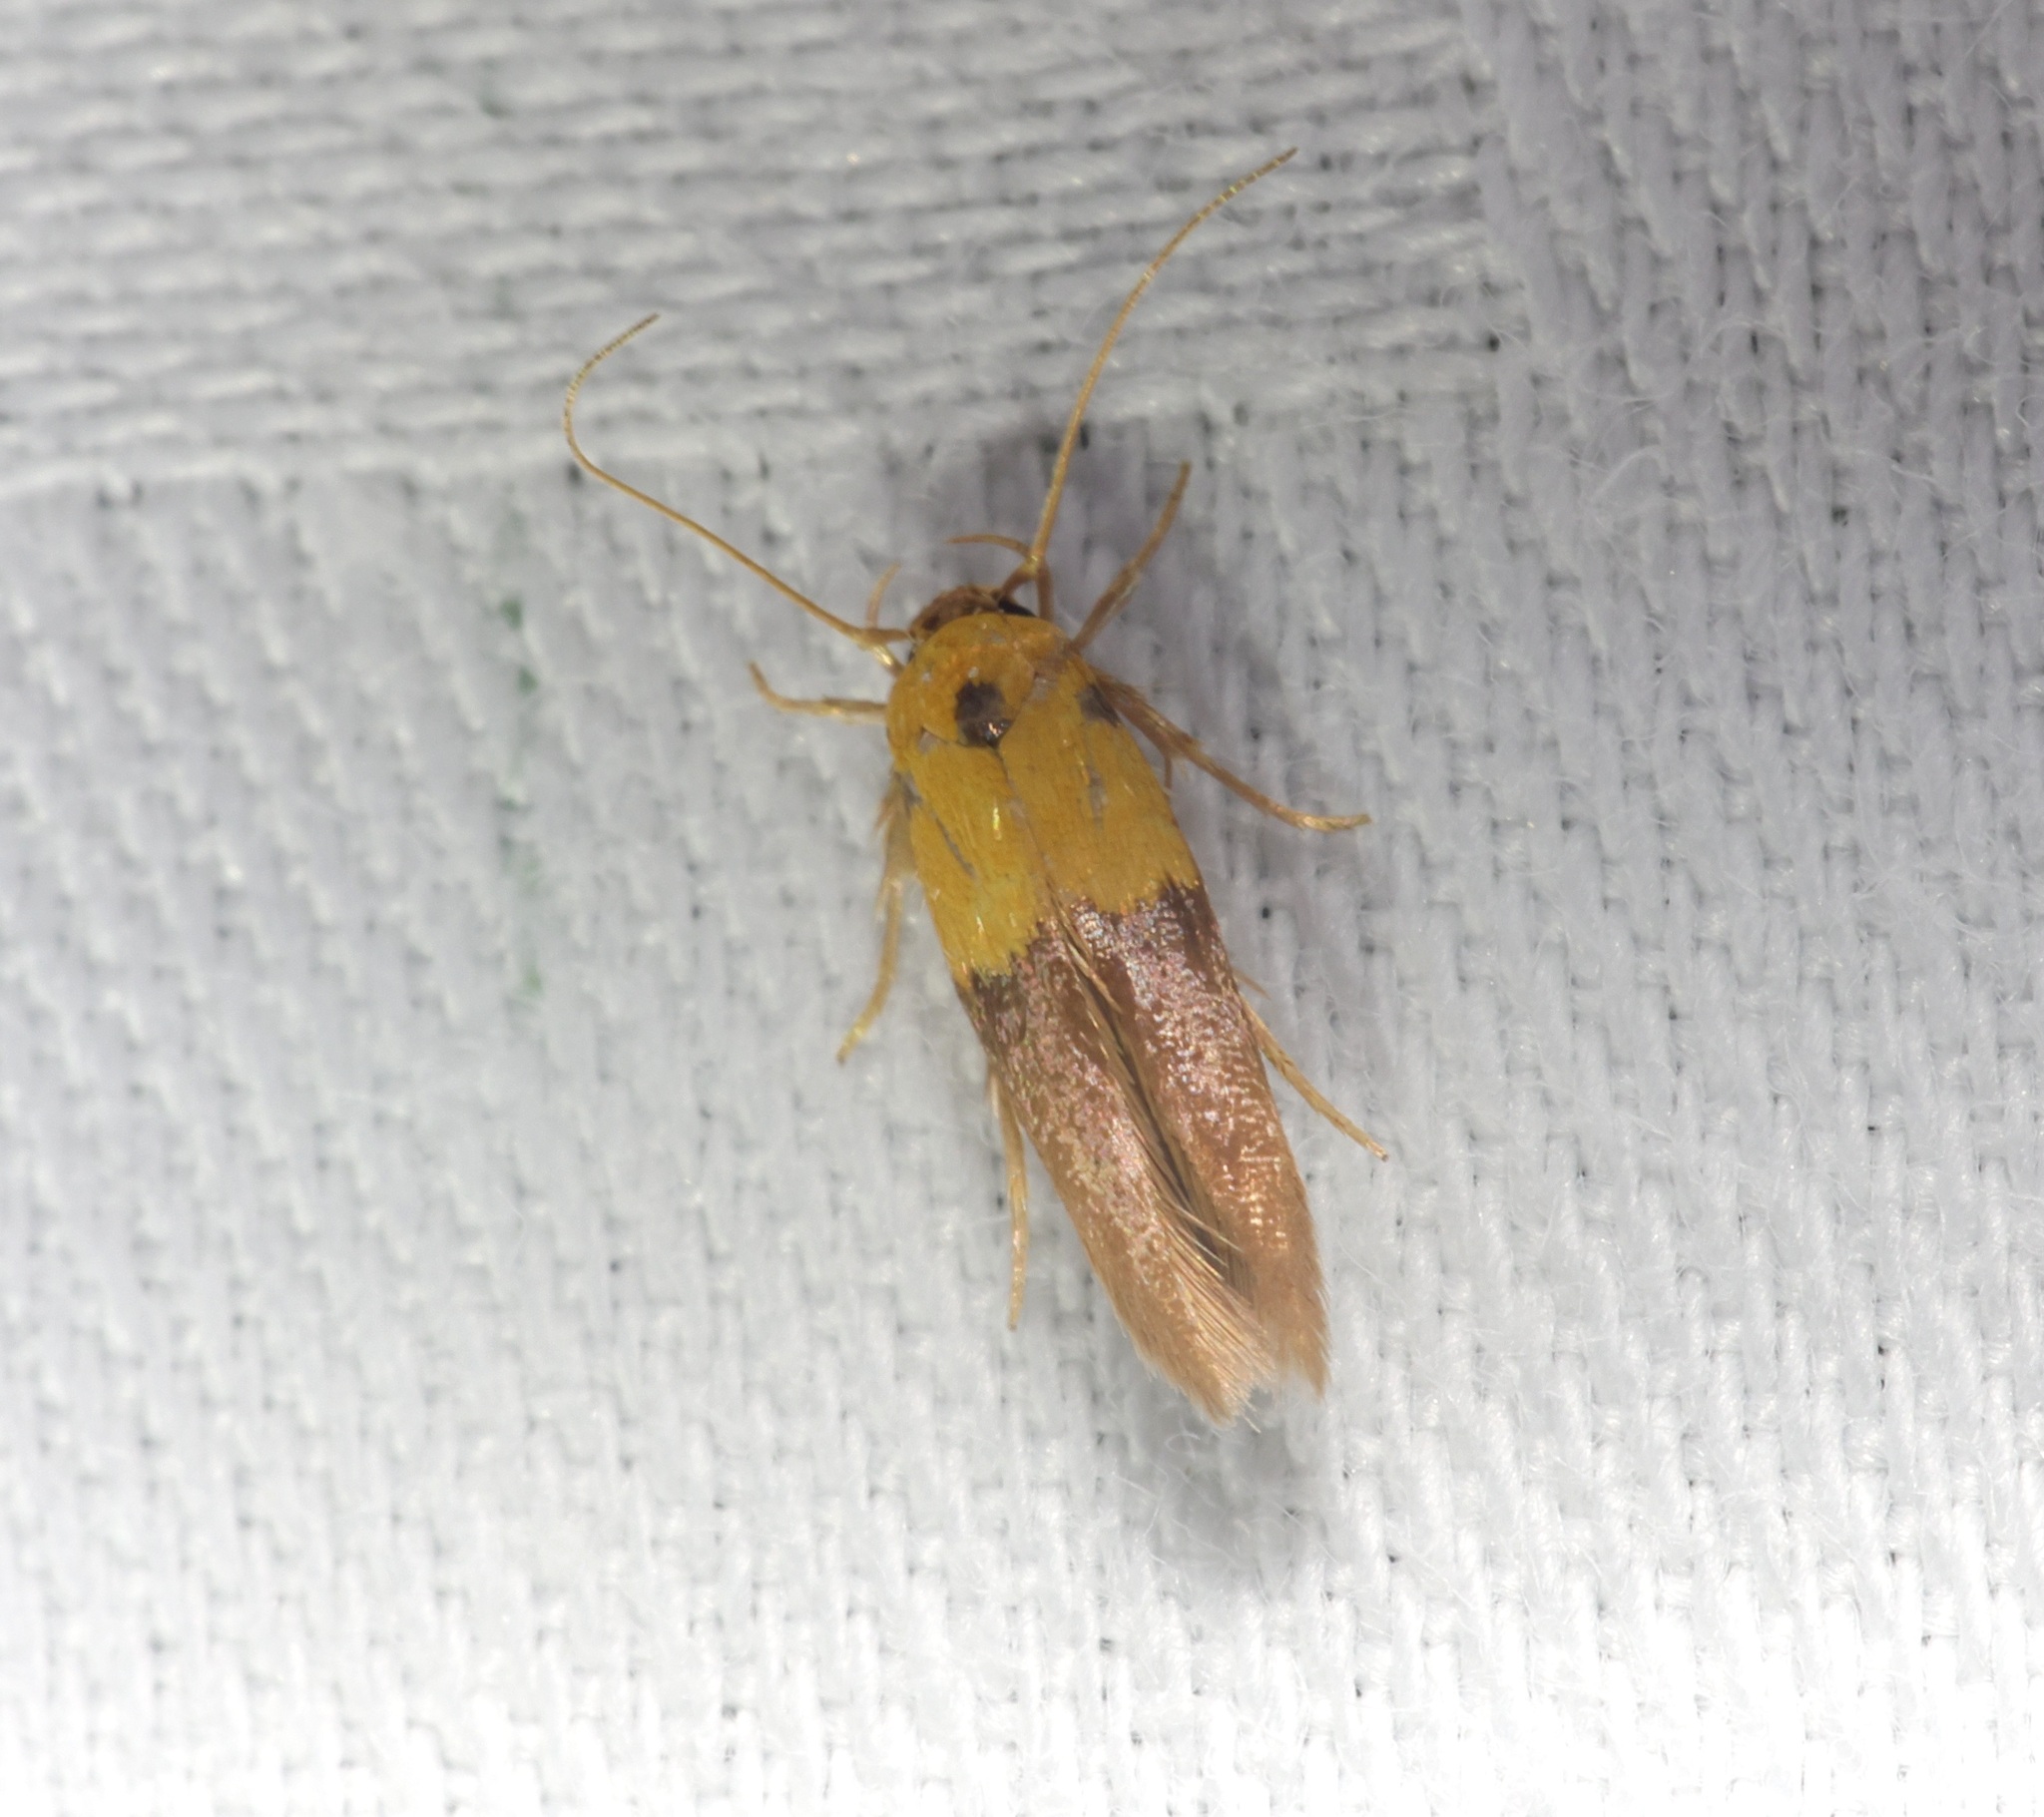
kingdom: Animalia
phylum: Arthropoda
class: Insecta
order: Lepidoptera
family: Stathmopodidae
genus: Stathmopoda
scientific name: Stathmopoda auriferella
